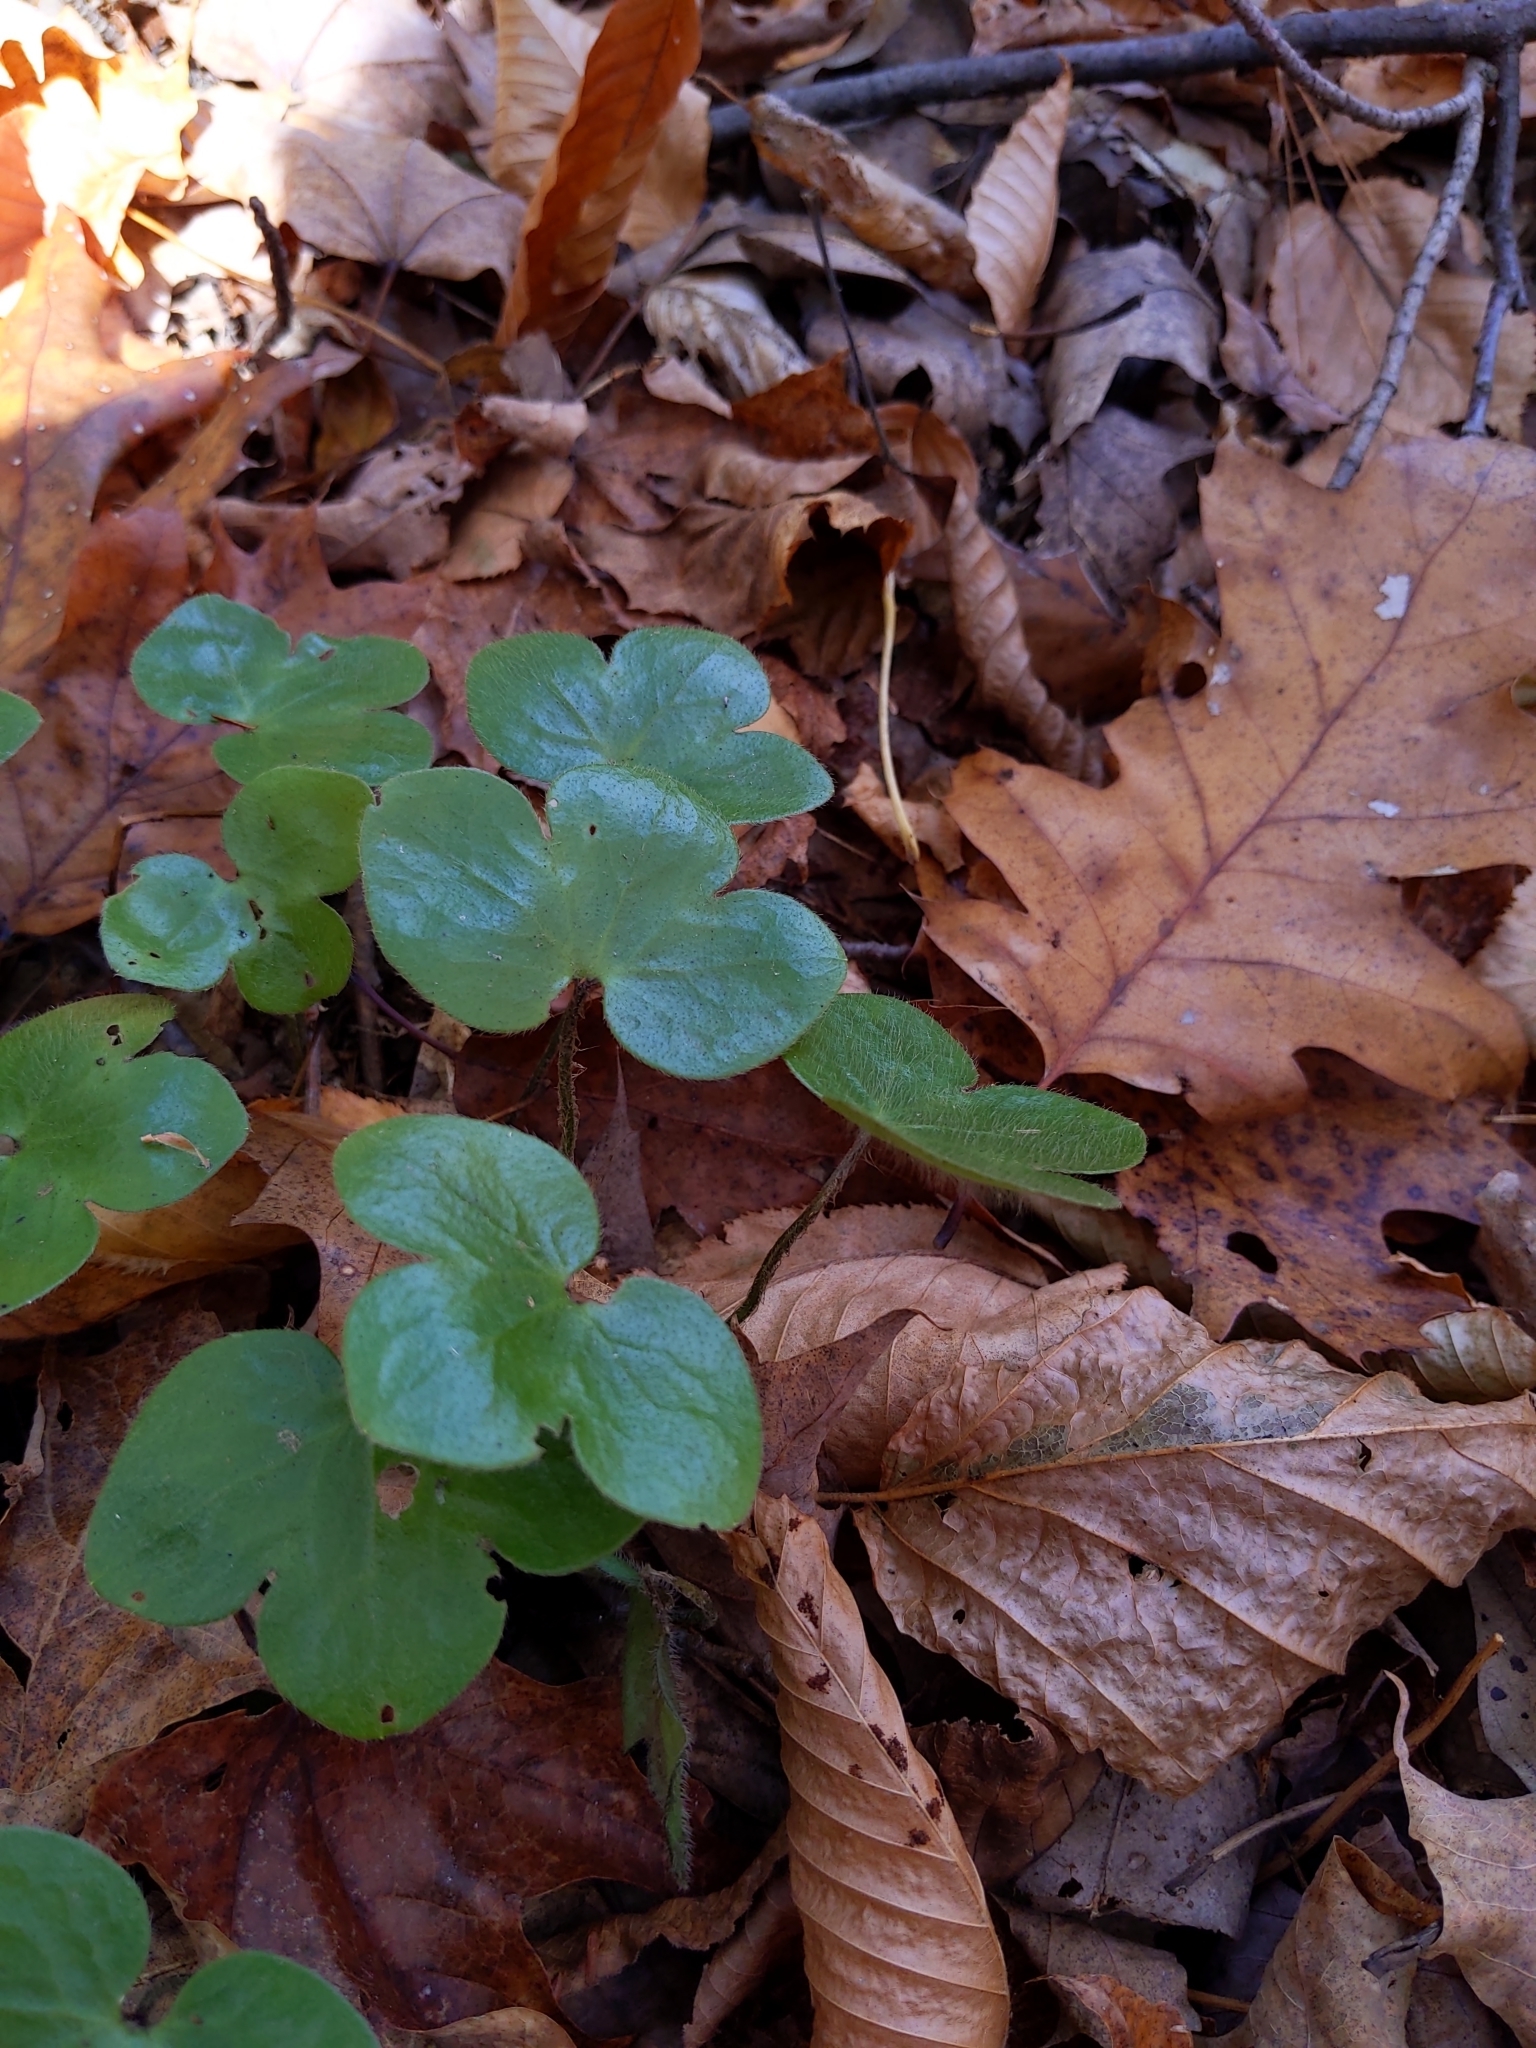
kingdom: Plantae
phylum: Tracheophyta
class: Magnoliopsida
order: Ranunculales
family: Ranunculaceae
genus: Hepatica
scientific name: Hepatica americana
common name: American hepatica
